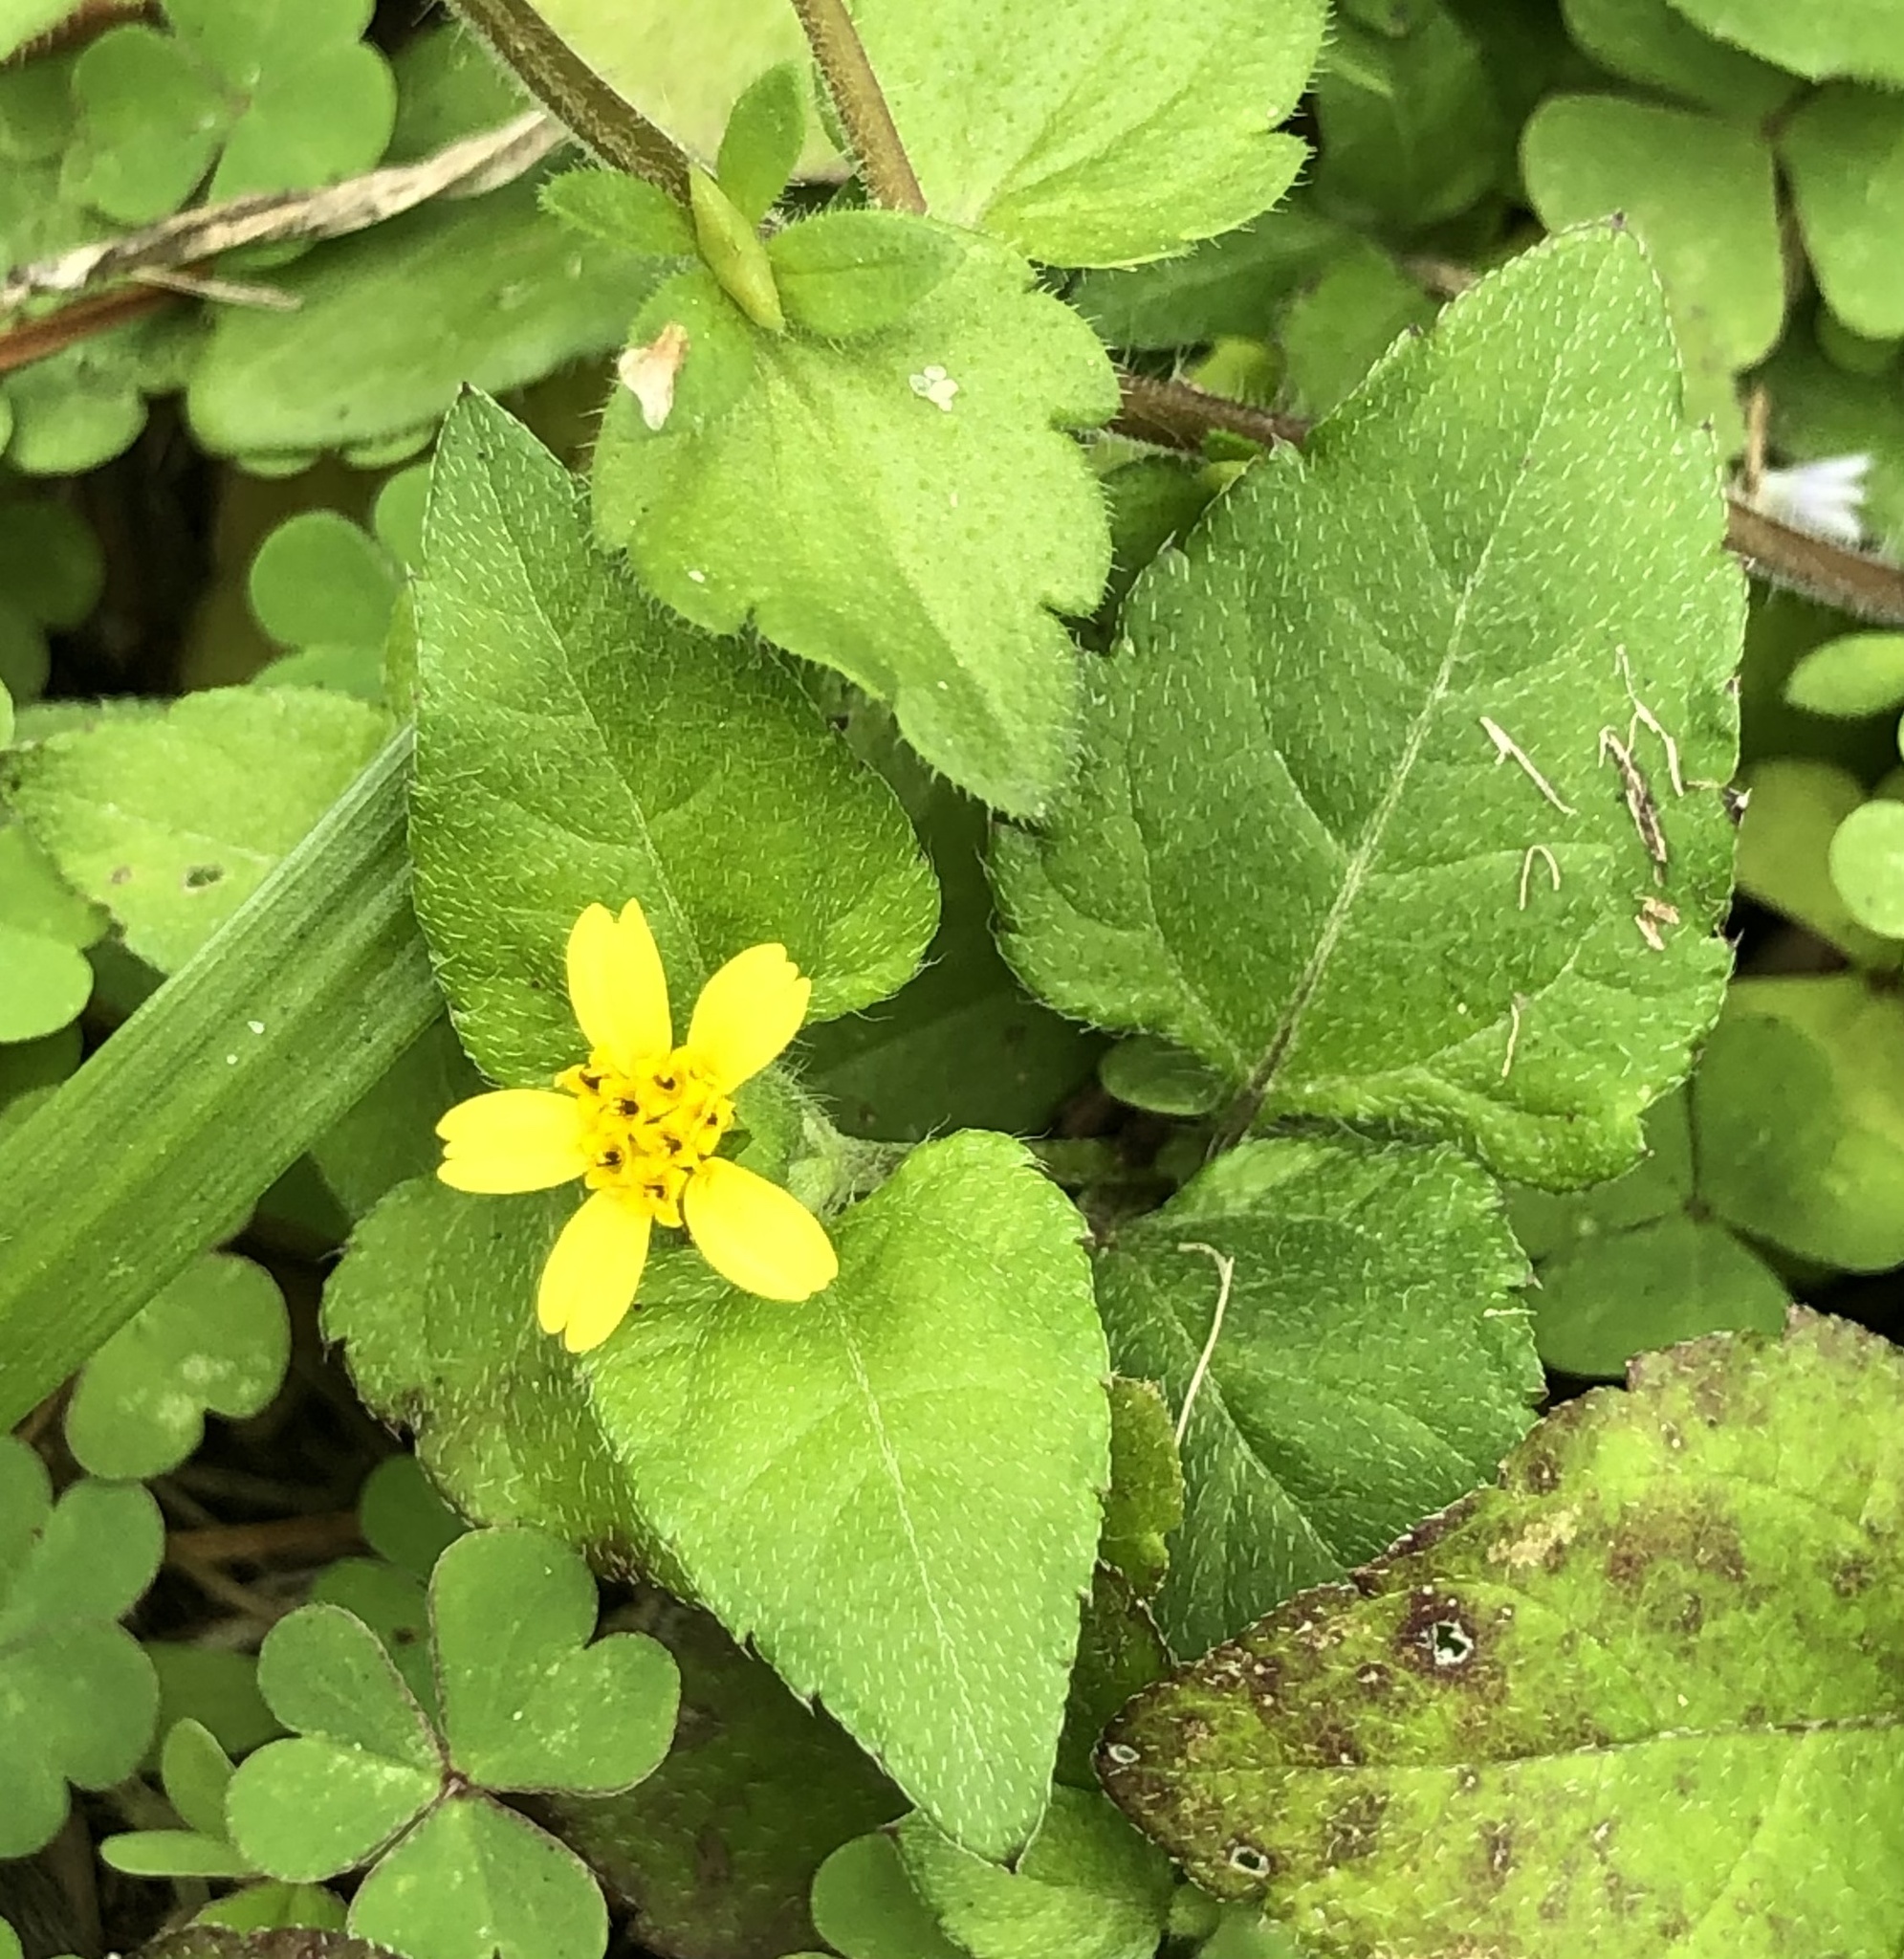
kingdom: Plantae
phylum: Tracheophyta
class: Magnoliopsida
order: Asterales
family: Asteraceae
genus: Calyptocarpus
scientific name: Calyptocarpus vialis
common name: Straggler daisy
